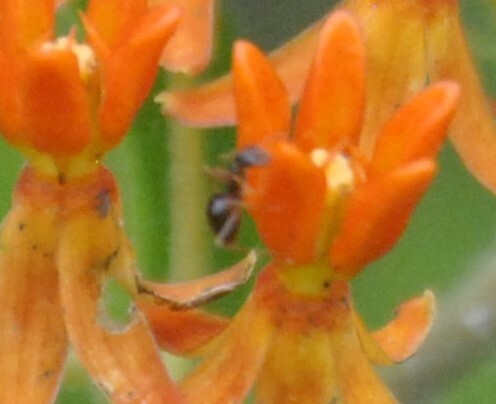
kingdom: Animalia
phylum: Arthropoda
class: Insecta
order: Hymenoptera
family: Formicidae
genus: Prenolepis
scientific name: Prenolepis imparis
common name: Small honey ant
